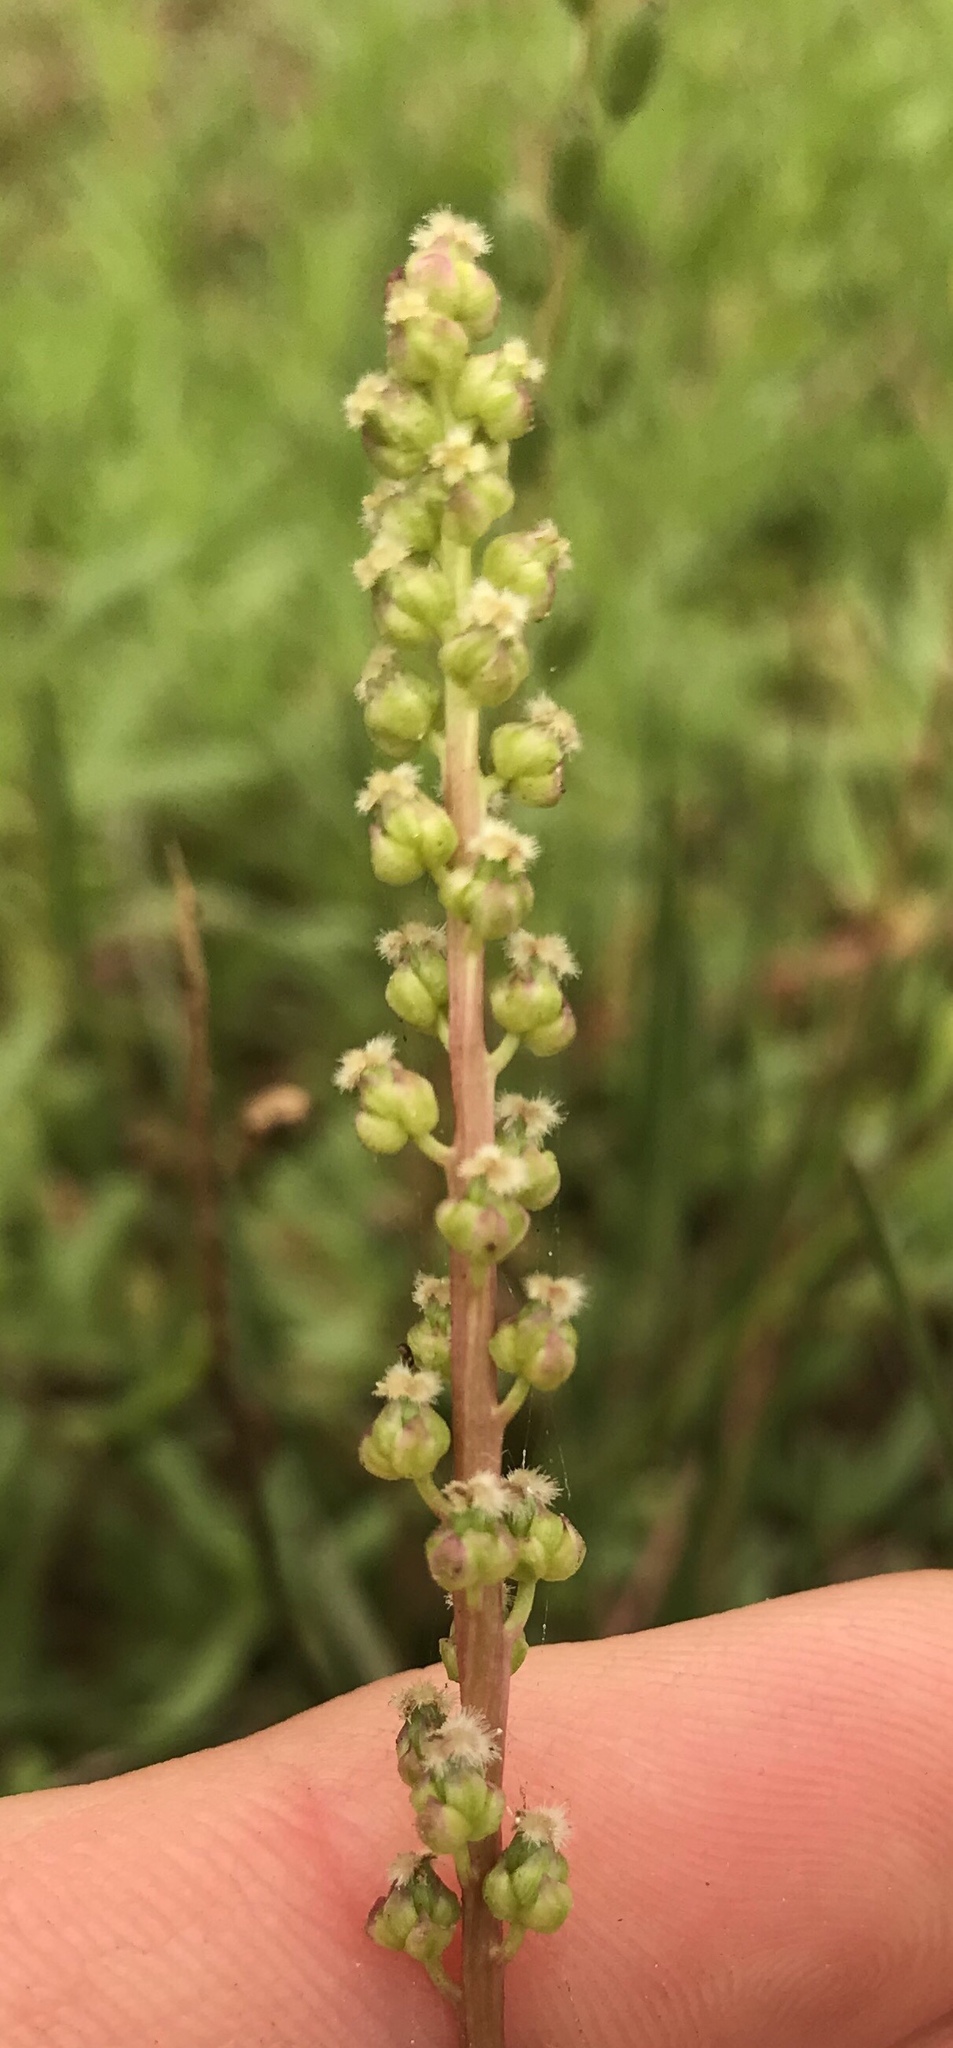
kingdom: Plantae
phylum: Tracheophyta
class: Liliopsida
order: Alismatales
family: Juncaginaceae
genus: Triglochin
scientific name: Triglochin maritima
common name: Sea arrowgrass
